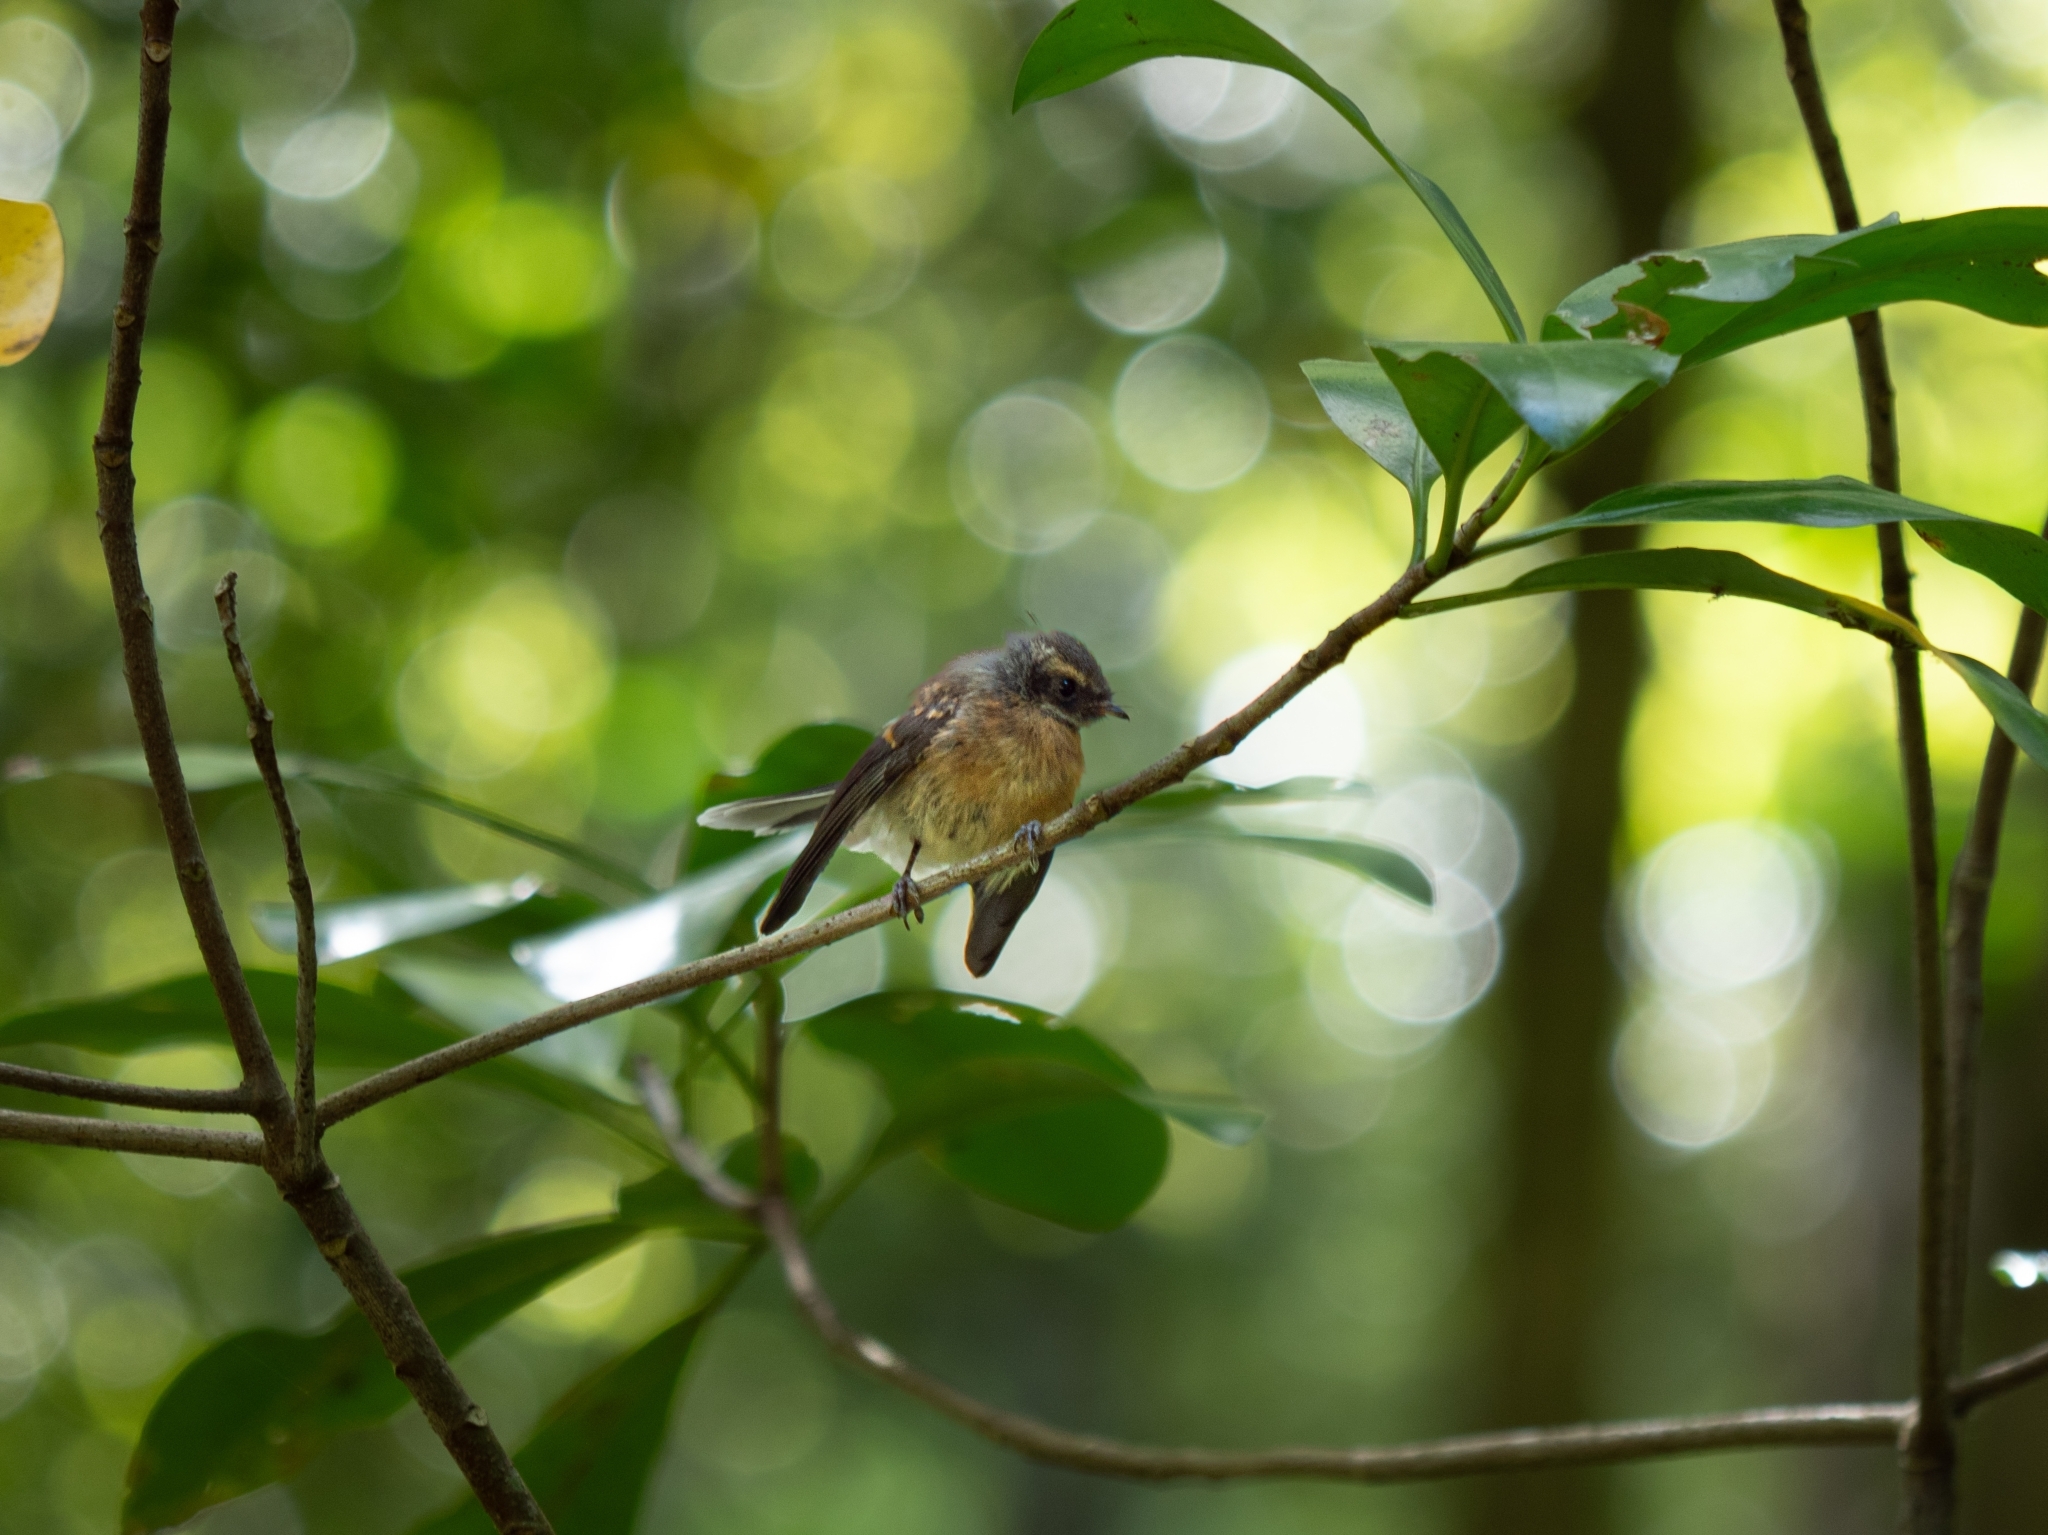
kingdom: Animalia
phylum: Chordata
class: Aves
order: Passeriformes
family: Rhipiduridae
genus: Rhipidura
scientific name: Rhipidura fuliginosa
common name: New zealand fantail
